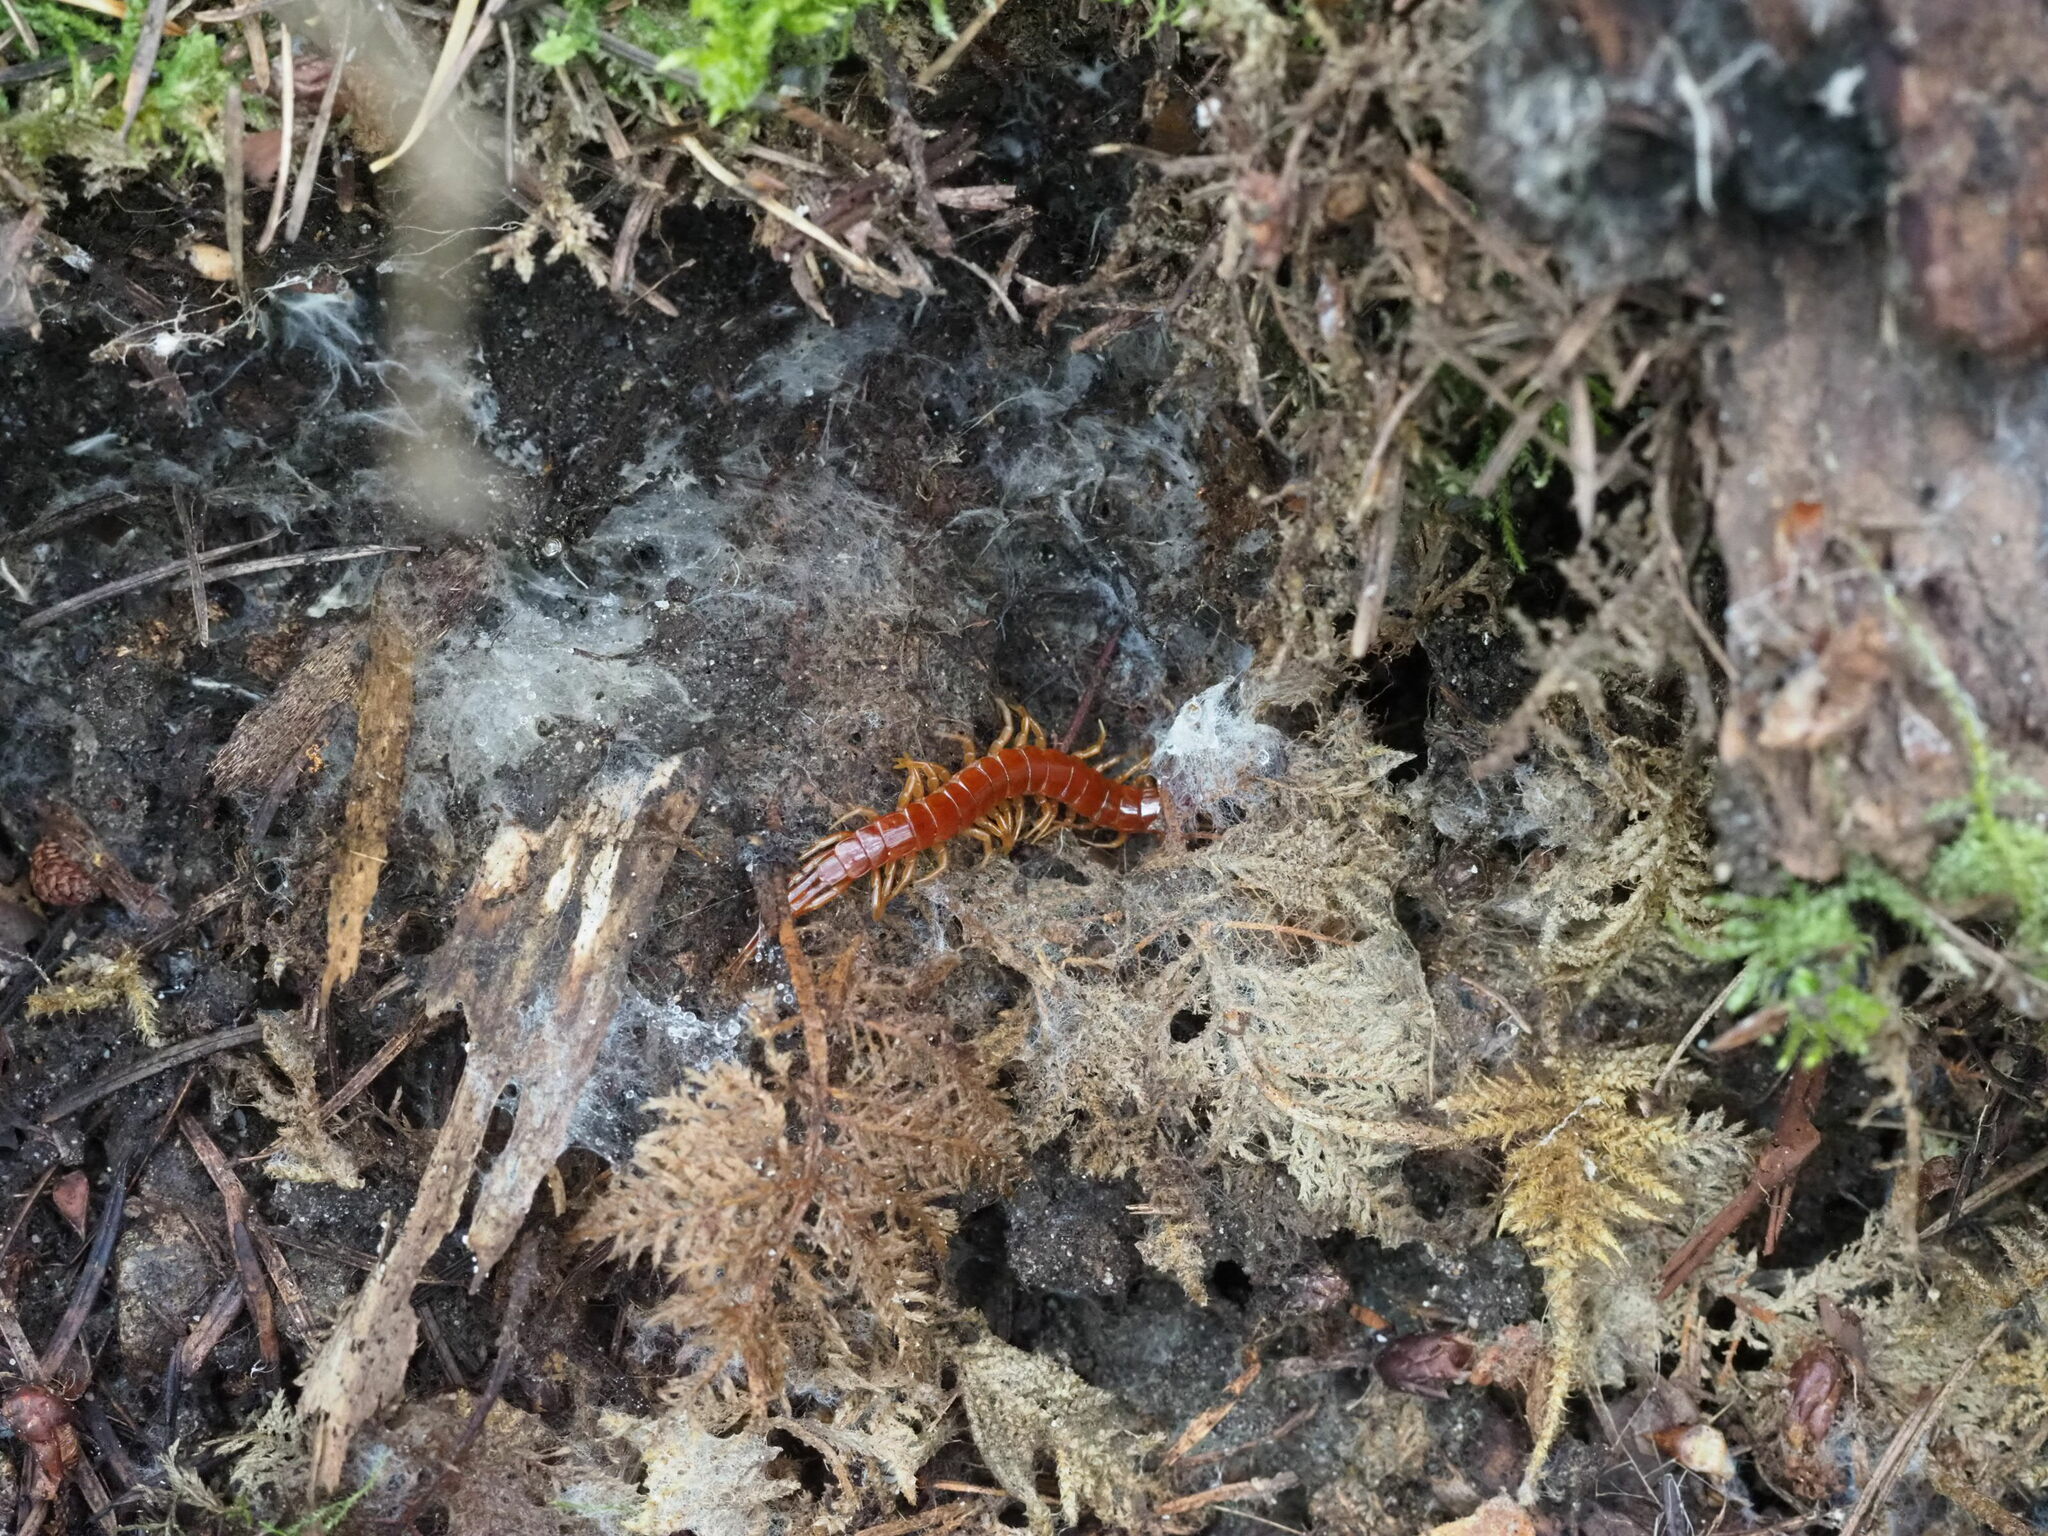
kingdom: Animalia
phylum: Arthropoda
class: Chilopoda
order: Scolopendromorpha
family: Scolopocryptopidae
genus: Scolopocryptops
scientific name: Scolopocryptops spinicaudus
